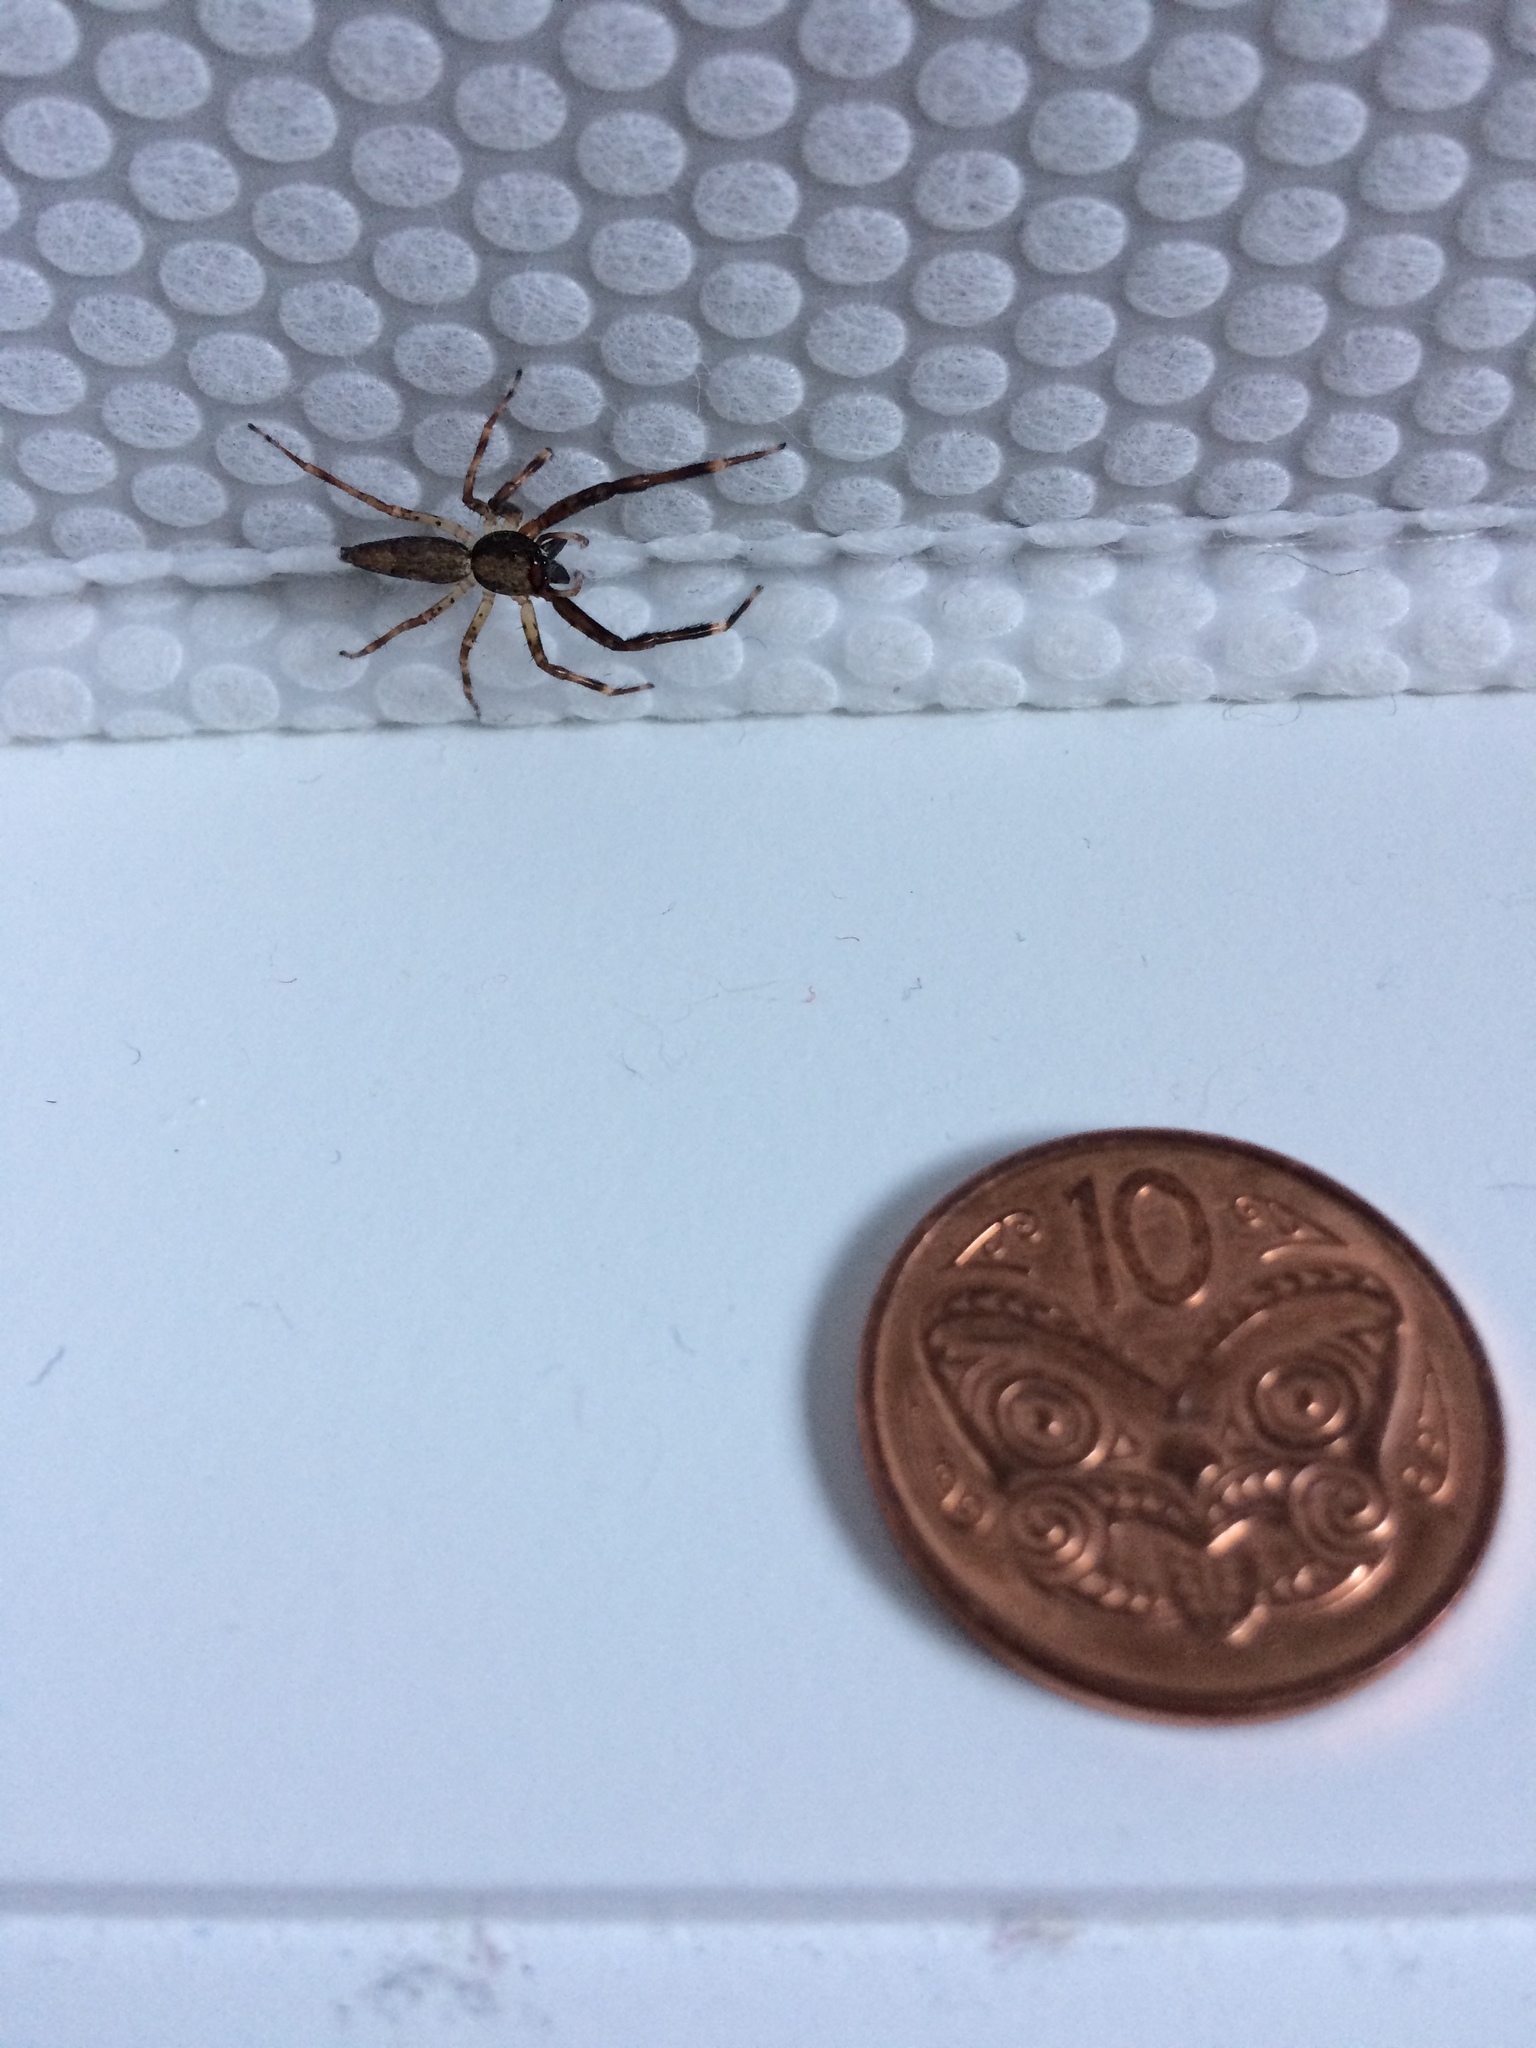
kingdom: Animalia
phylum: Arthropoda
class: Arachnida
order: Araneae
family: Salticidae
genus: Helpis
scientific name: Helpis minitabunda
